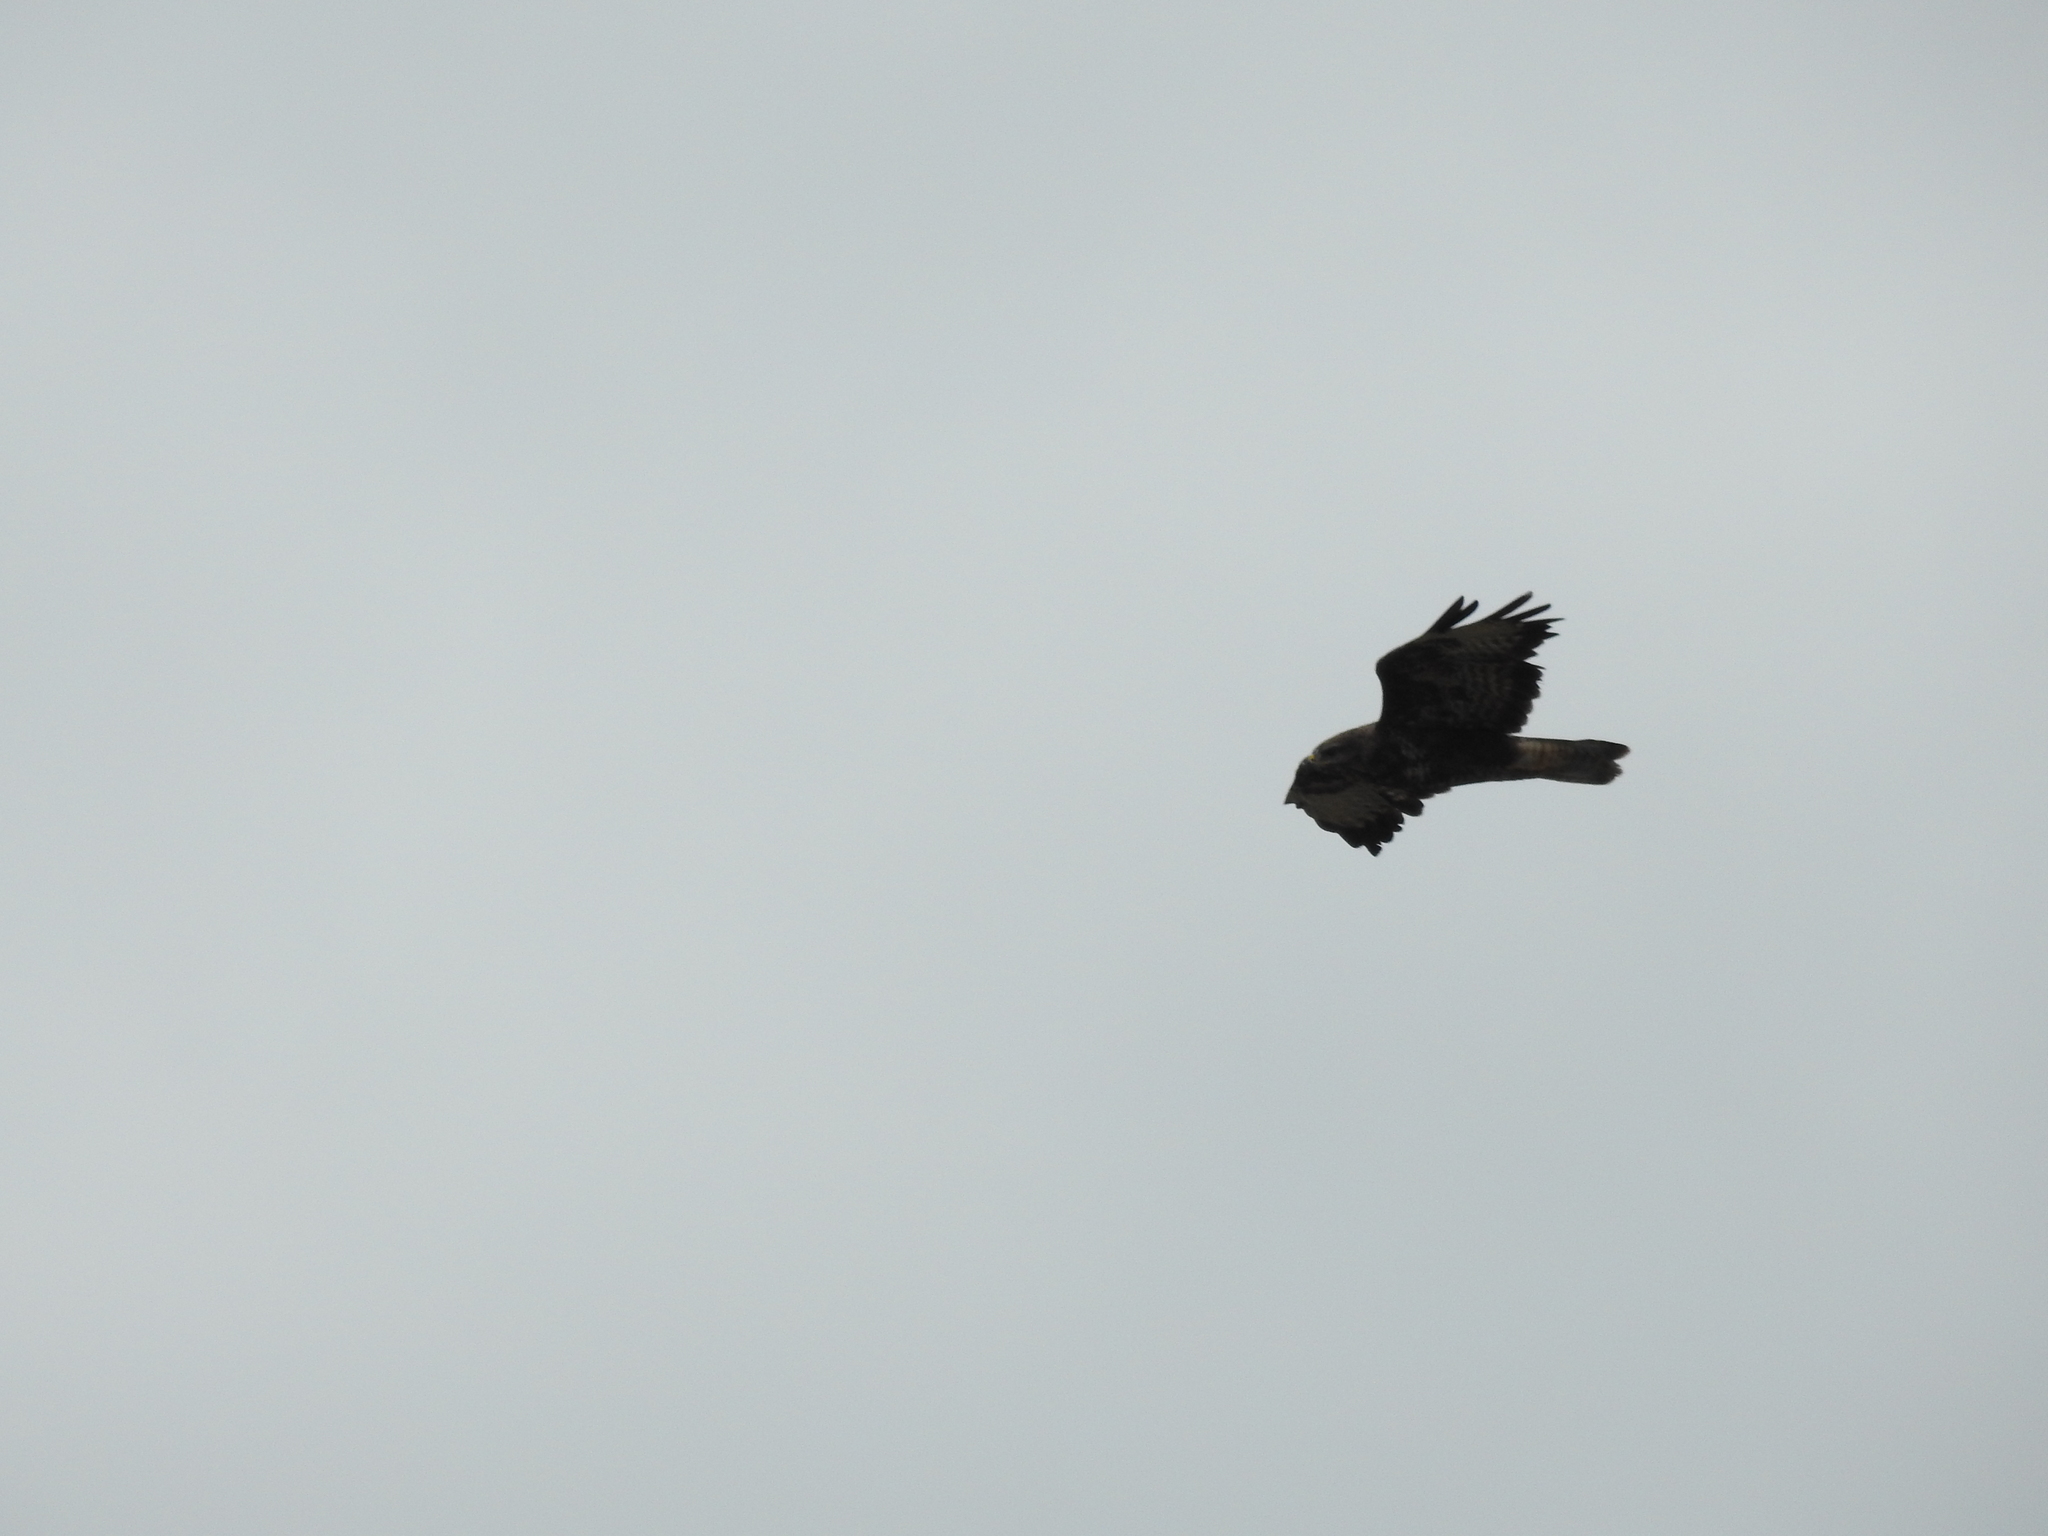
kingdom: Animalia
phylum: Chordata
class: Aves
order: Accipitriformes
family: Accipitridae
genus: Buteo
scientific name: Buteo buteo
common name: Common buzzard
